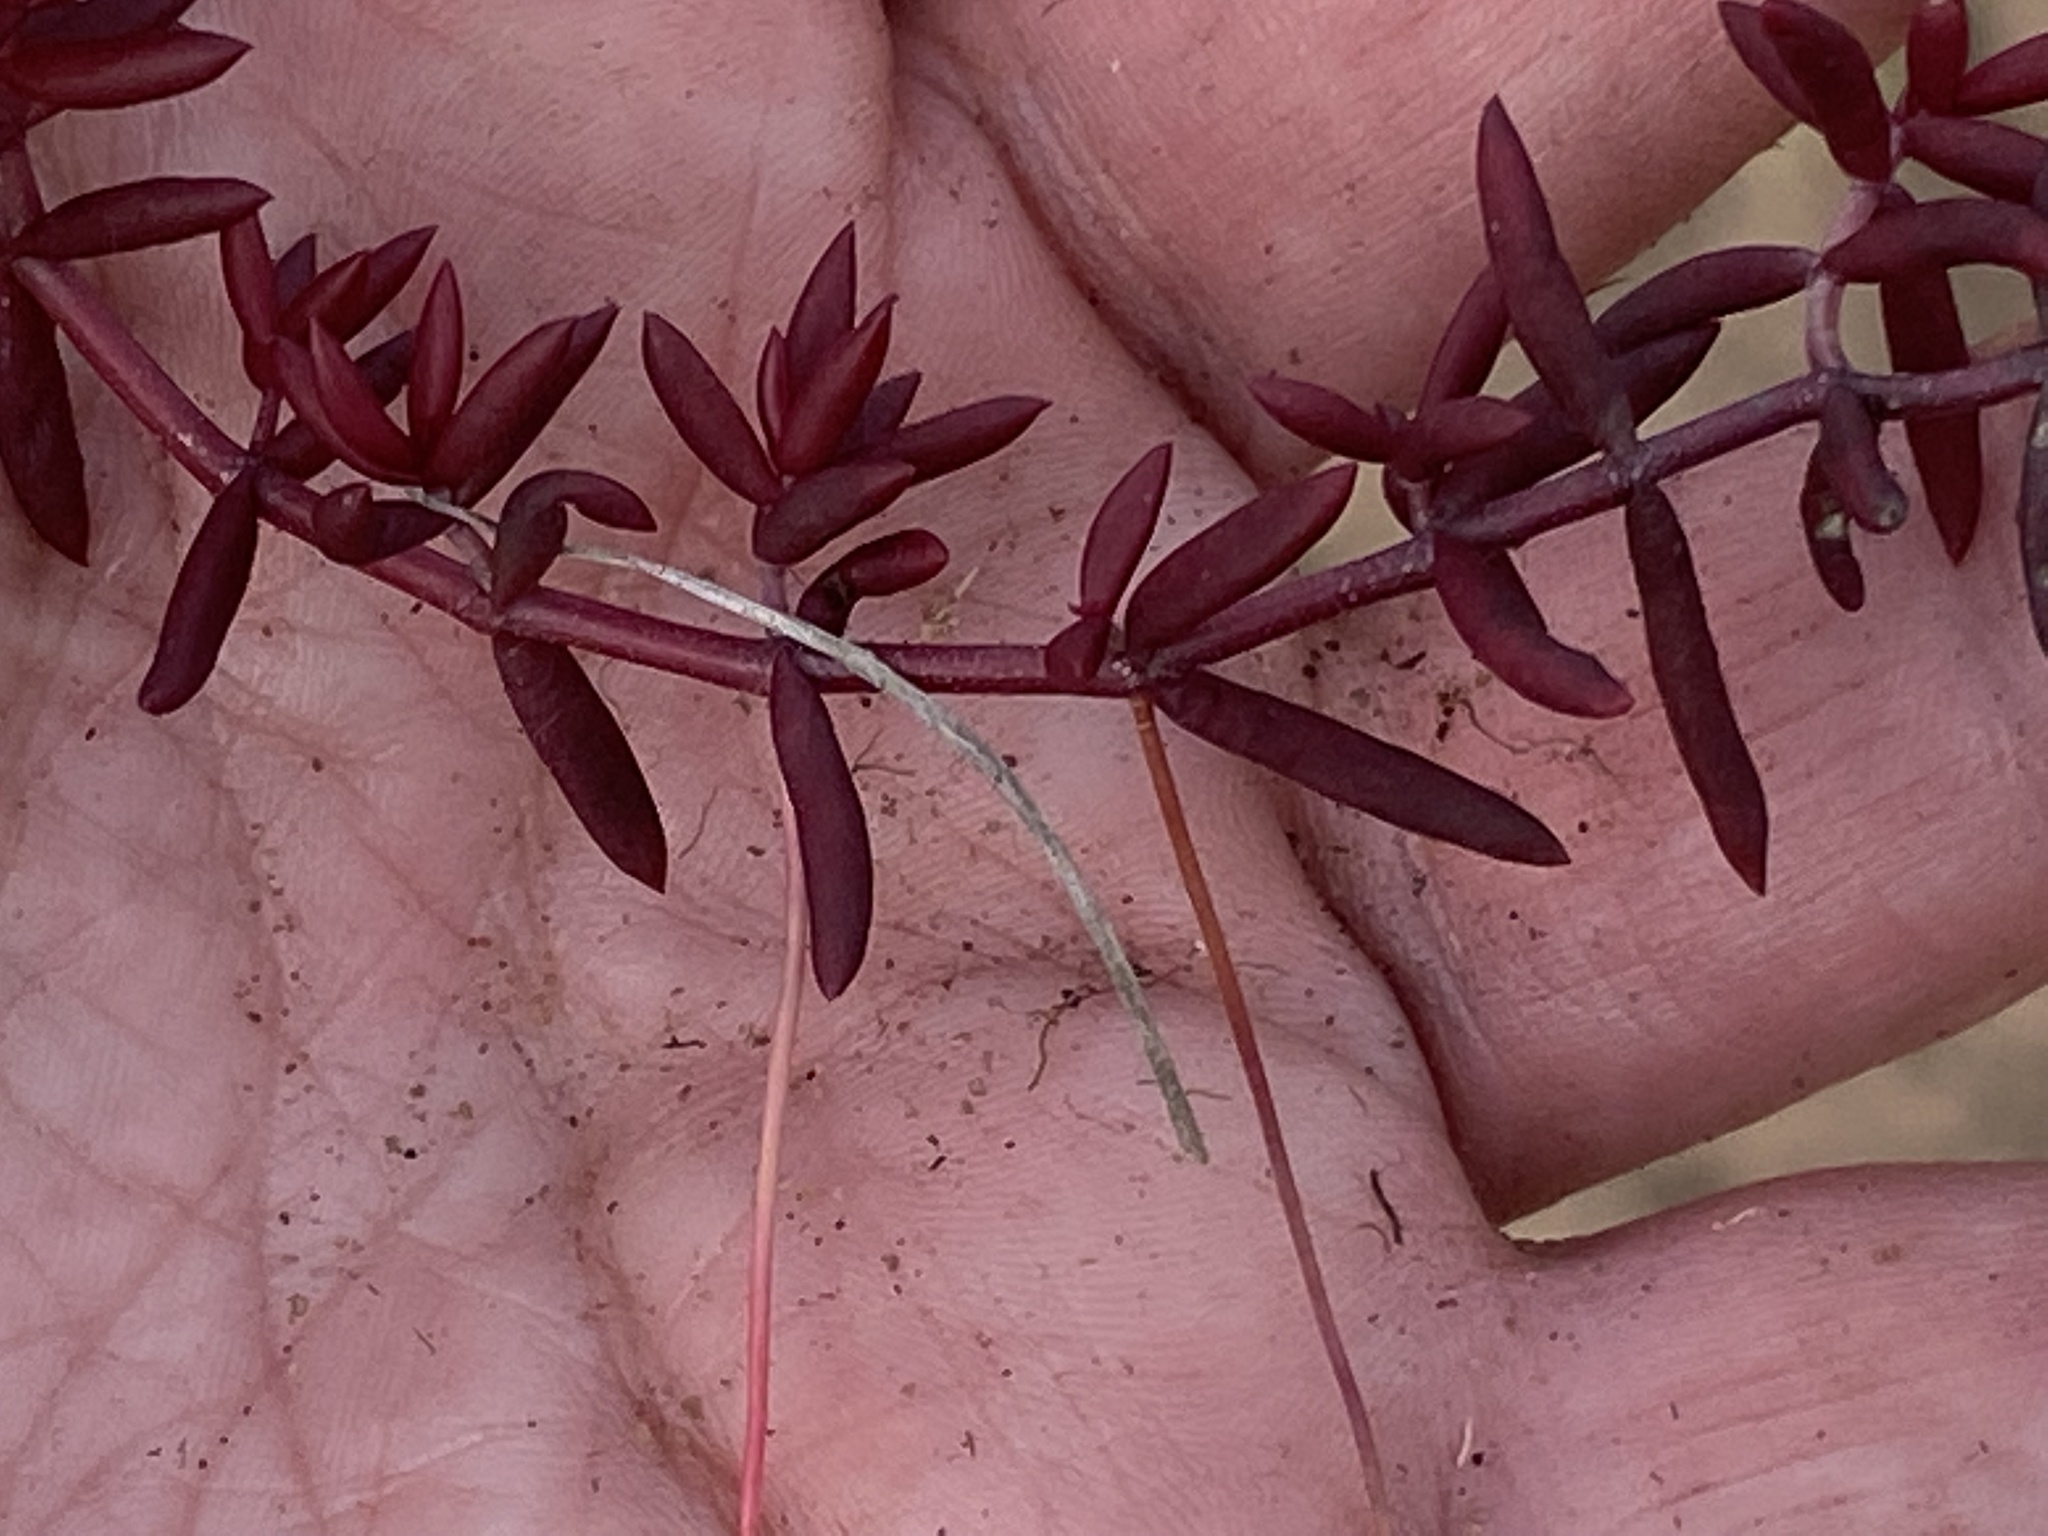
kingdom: Plantae
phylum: Tracheophyta
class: Magnoliopsida
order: Saxifragales
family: Crassulaceae
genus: Crassula
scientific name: Crassula expansa
